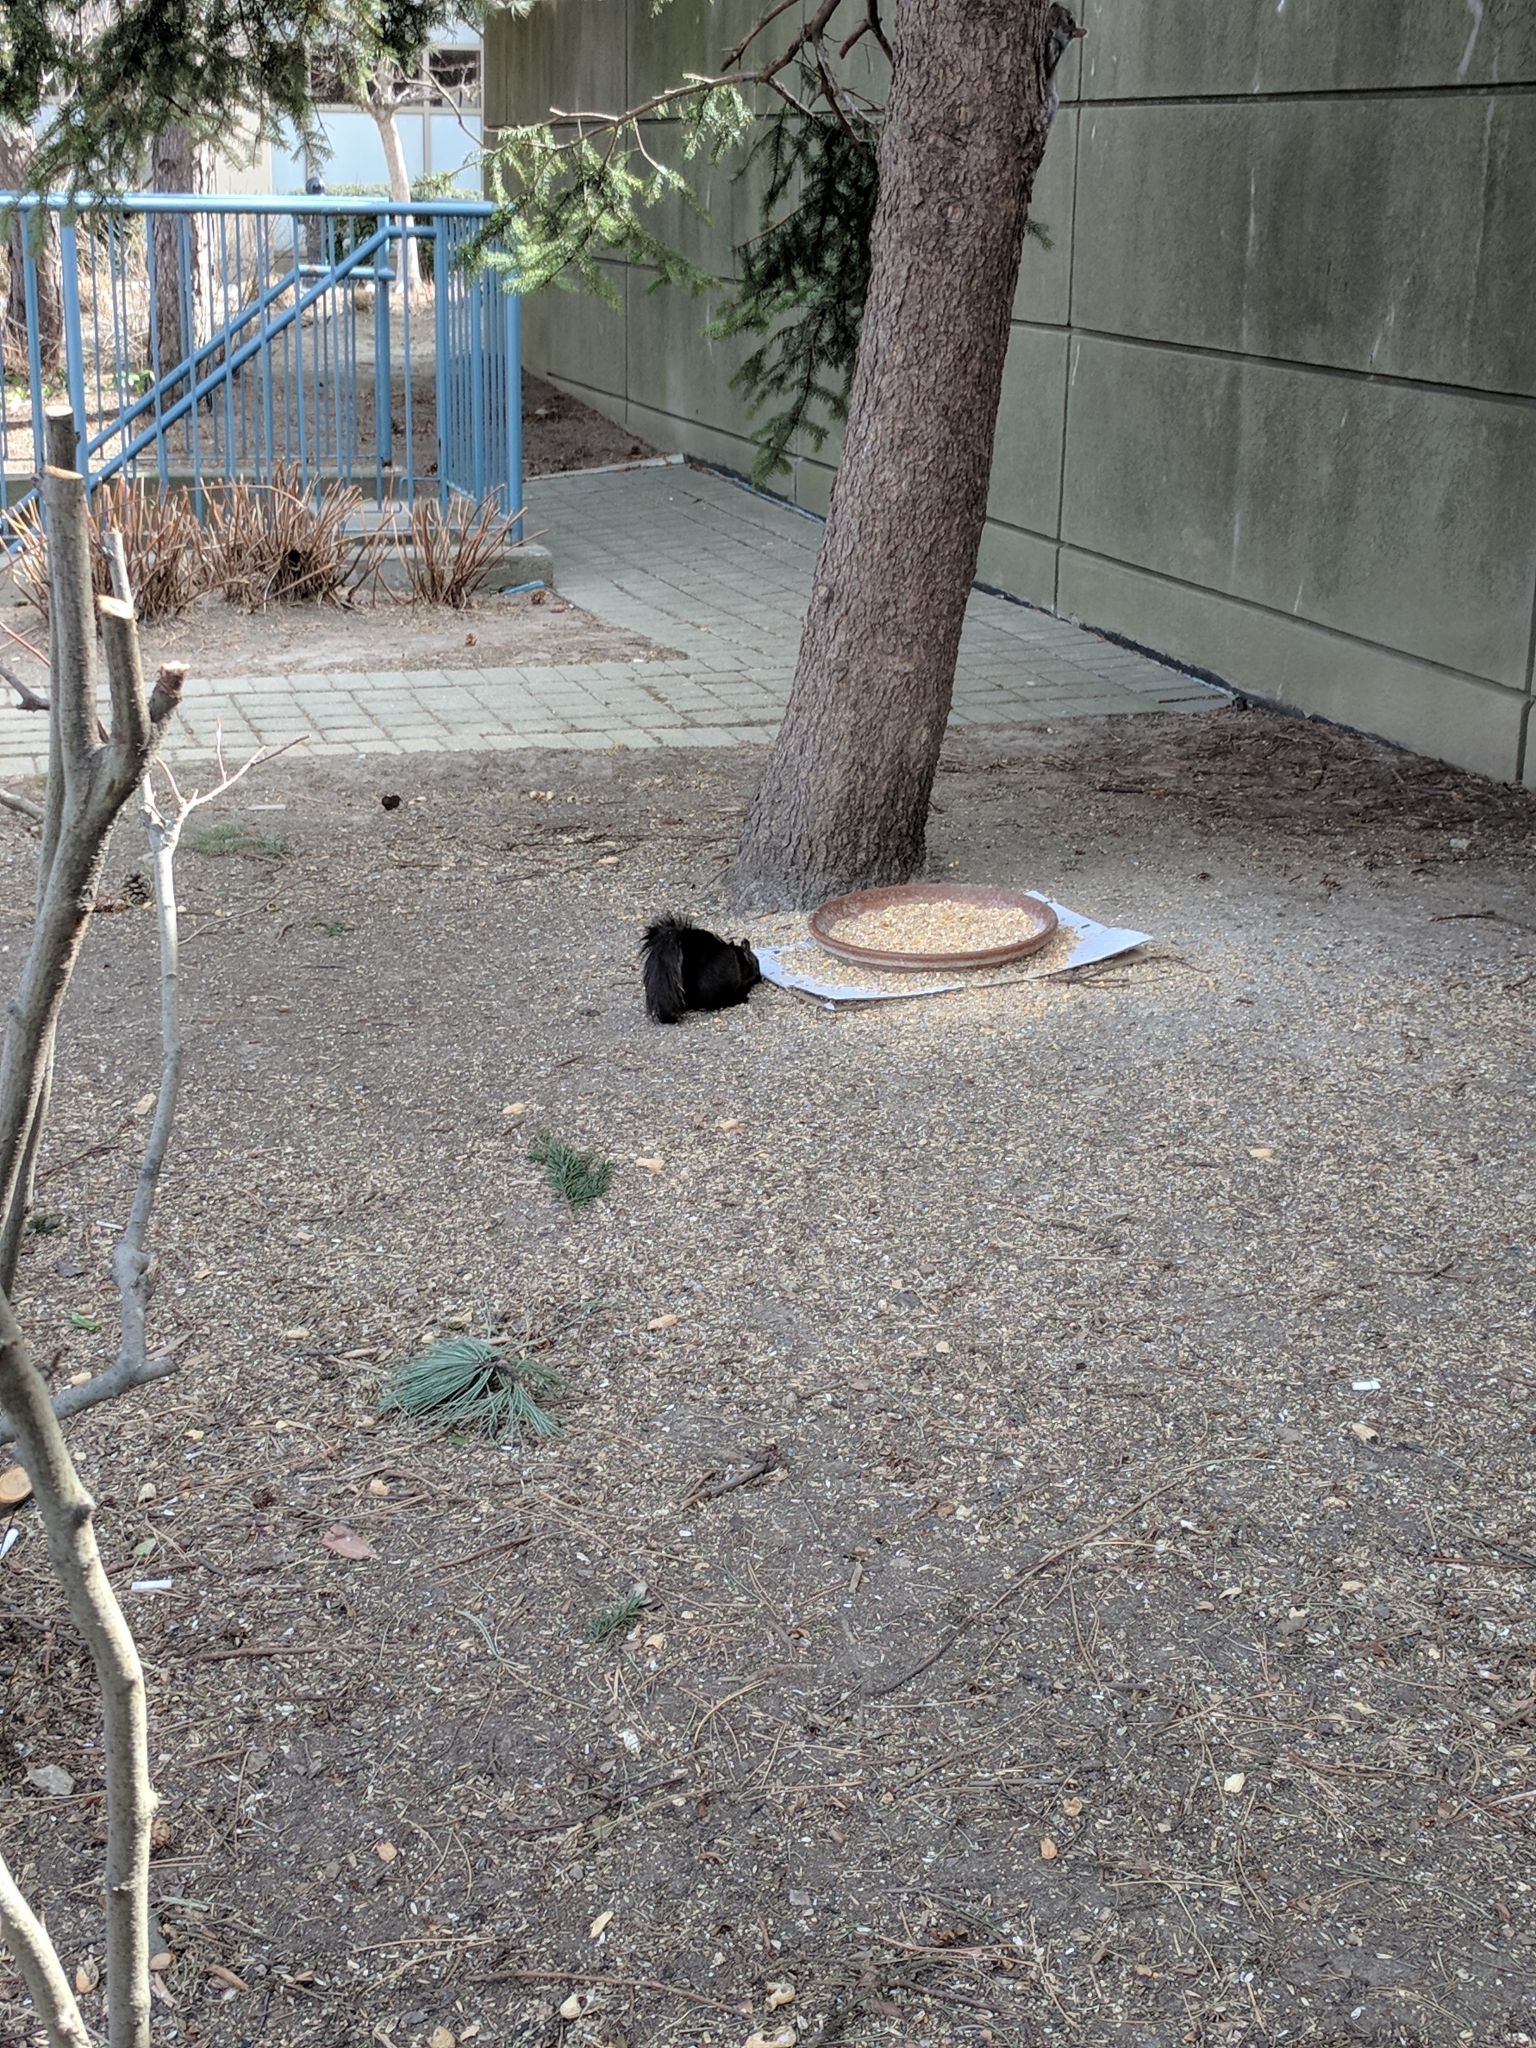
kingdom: Animalia
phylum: Chordata
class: Mammalia
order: Rodentia
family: Sciuridae
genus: Sciurus
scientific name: Sciurus carolinensis
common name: Eastern gray squirrel
